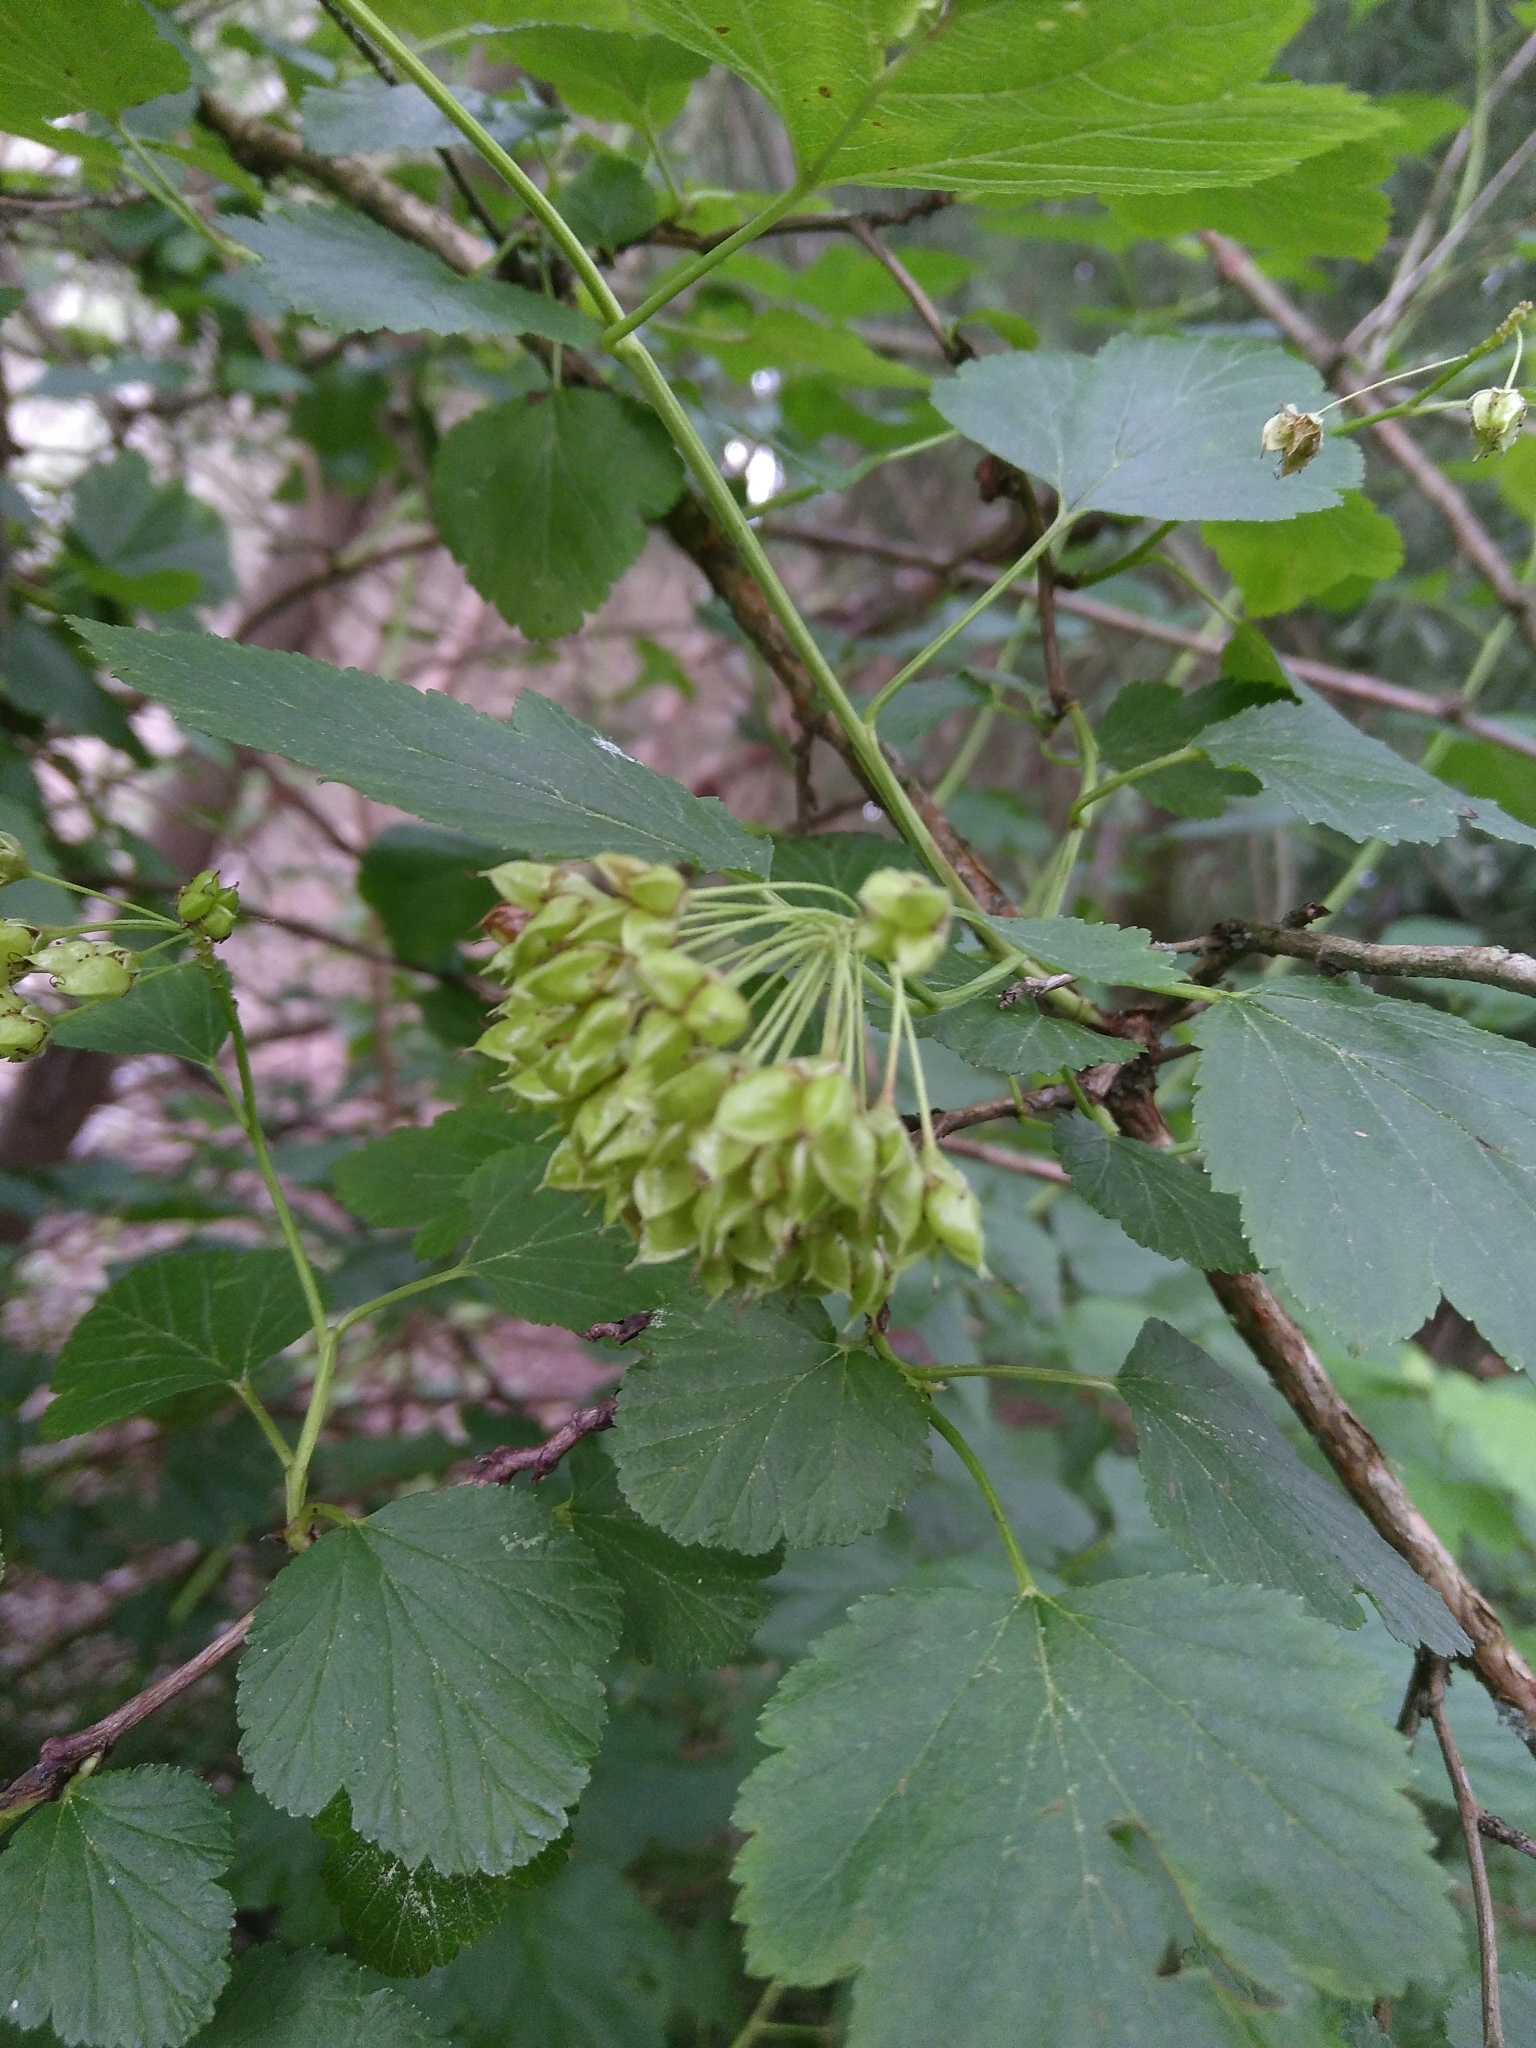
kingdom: Plantae
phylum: Tracheophyta
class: Magnoliopsida
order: Rosales
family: Rosaceae
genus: Physocarpus
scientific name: Physocarpus opulifolius
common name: Ninebark
